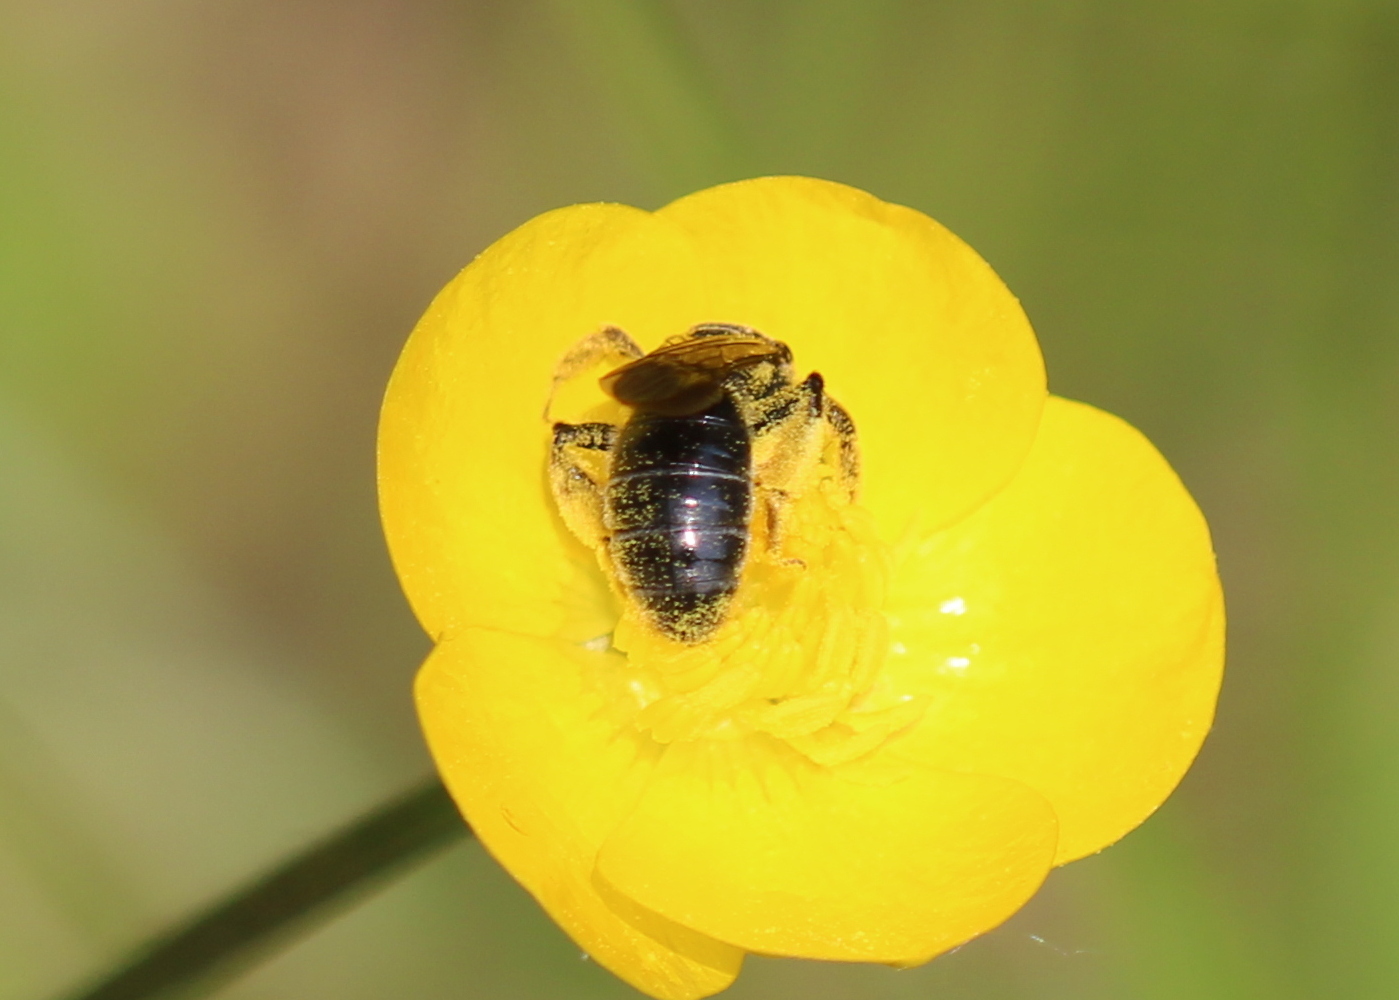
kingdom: Animalia
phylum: Arthropoda
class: Insecta
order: Hymenoptera
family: Andrenidae
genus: Andrena
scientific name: Andrena alleghaniensis
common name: Allegheny mining bee
